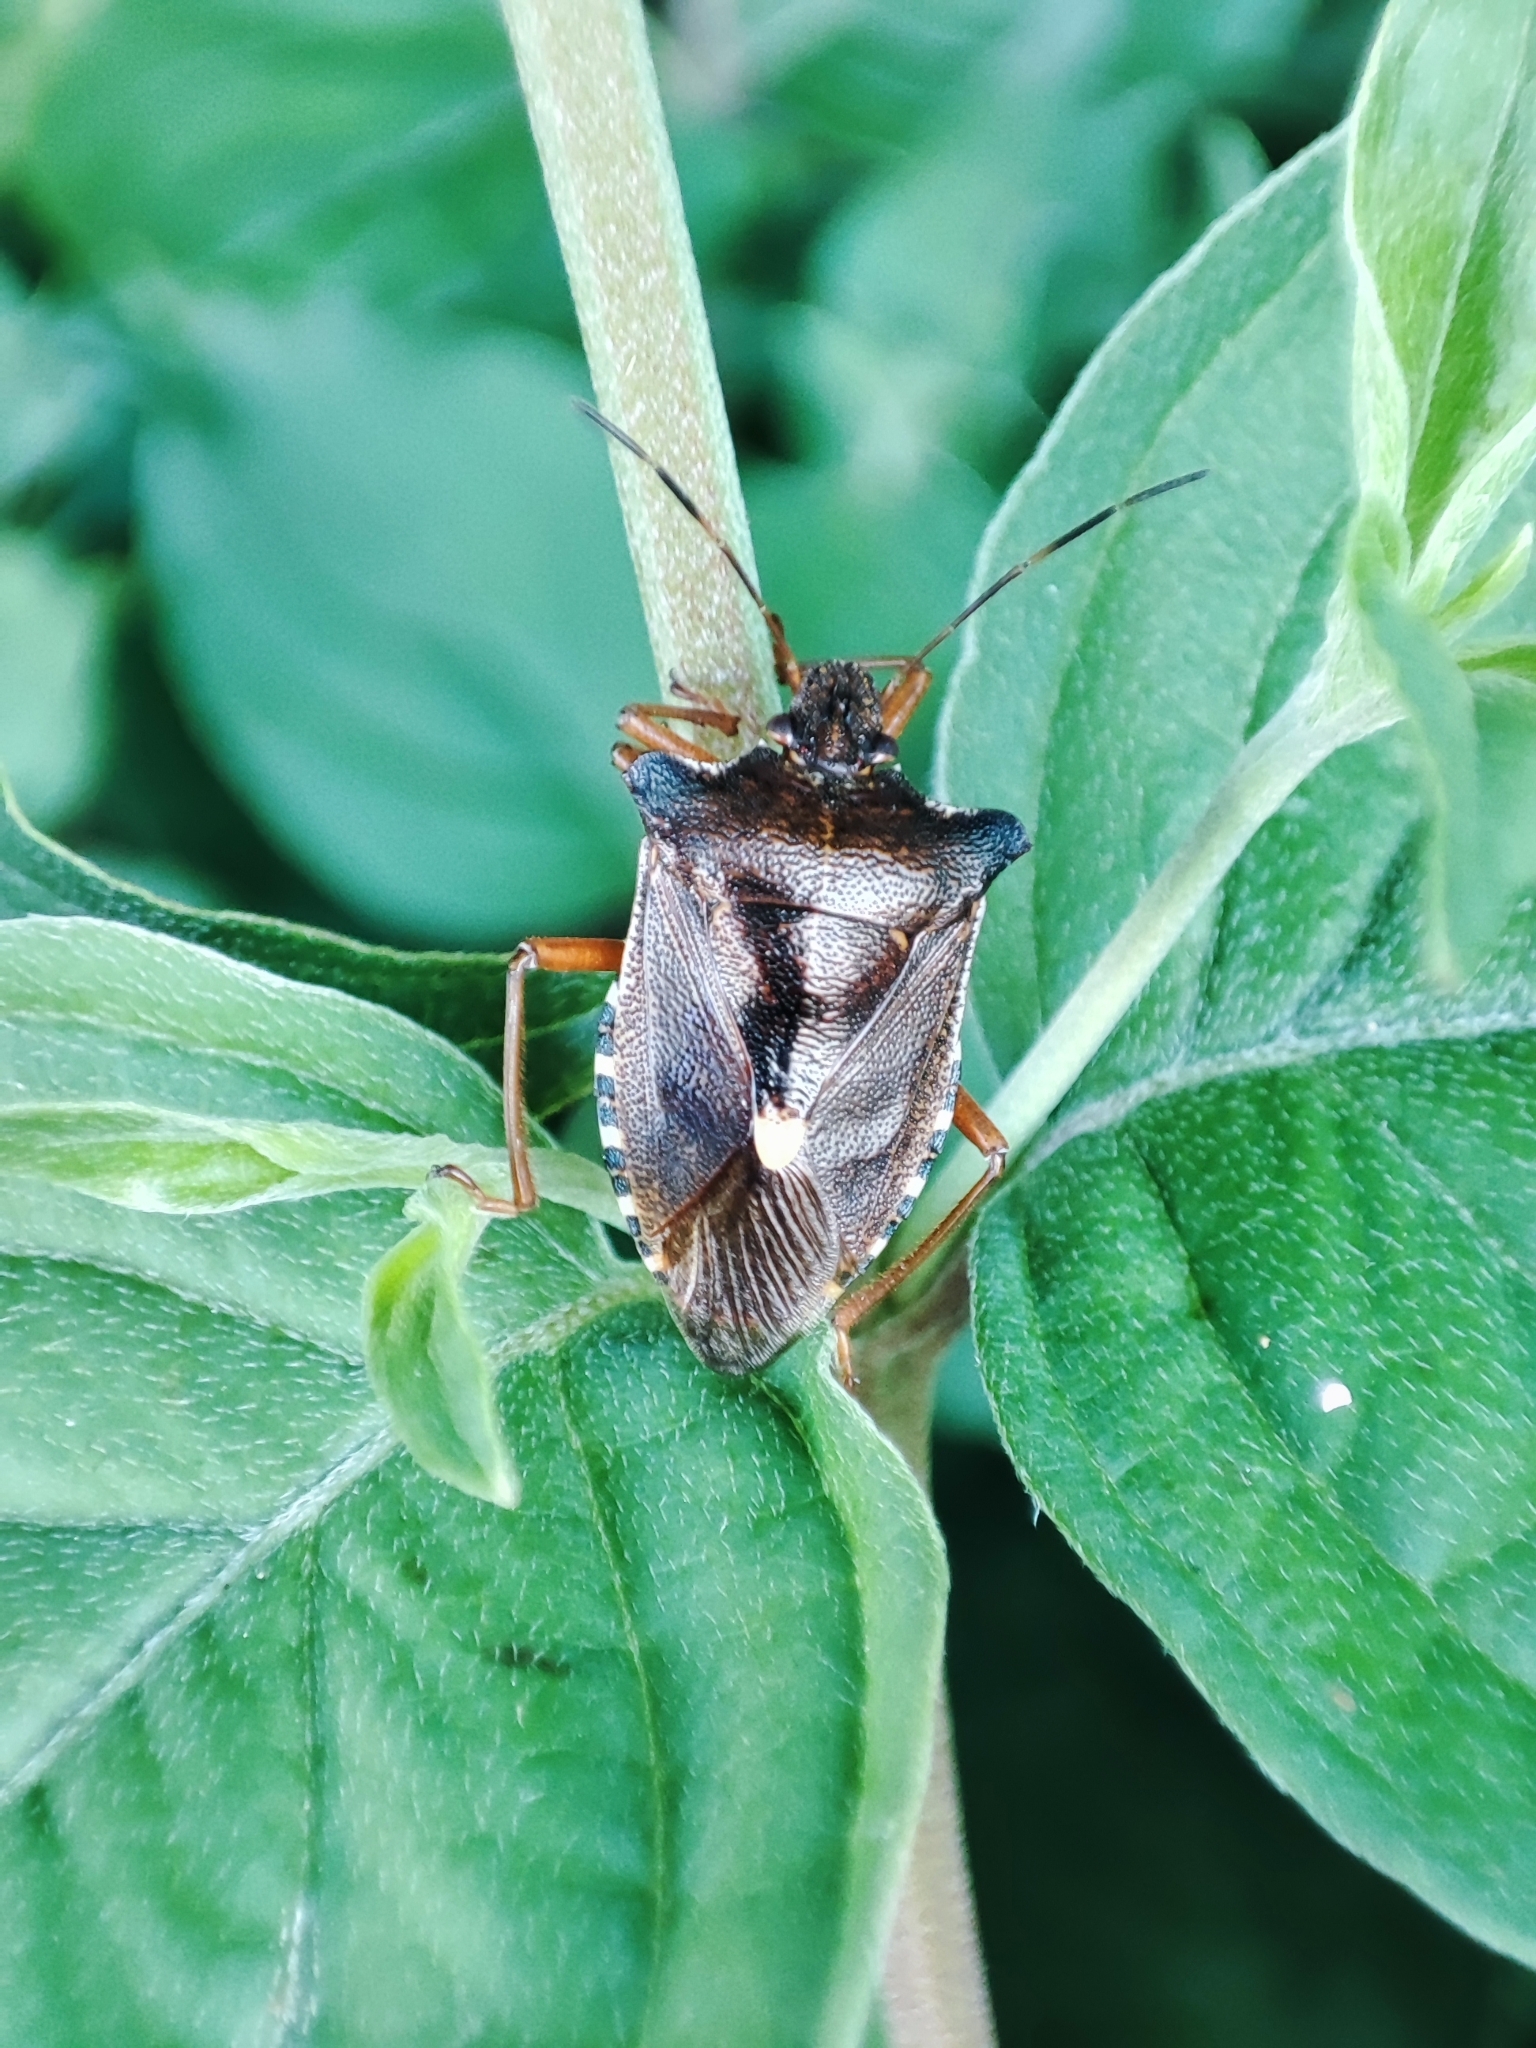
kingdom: Animalia
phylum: Arthropoda
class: Insecta
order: Hemiptera
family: Pentatomidae
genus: Pentatoma
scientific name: Pentatoma rufipes
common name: Forest bug
